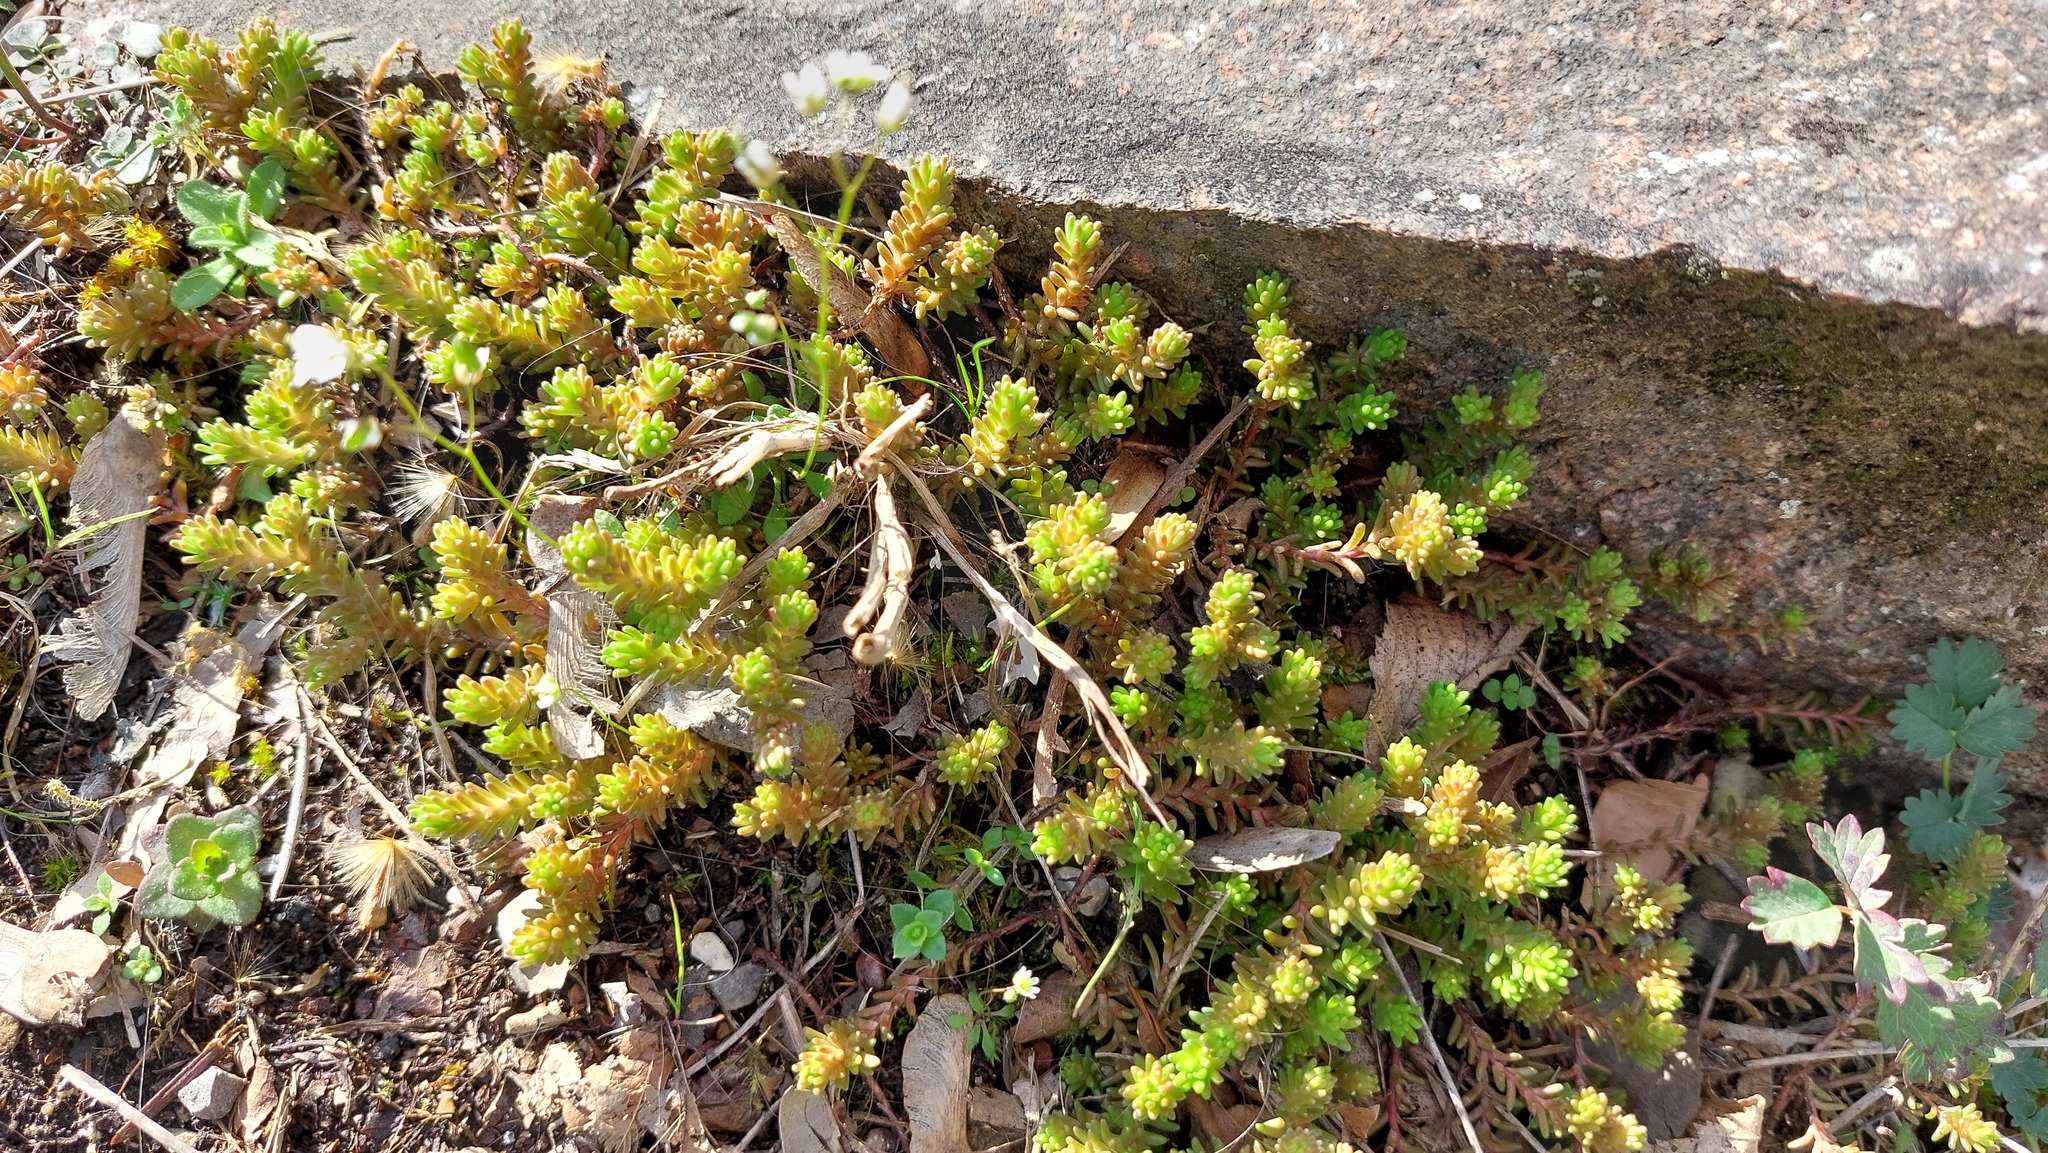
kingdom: Plantae
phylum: Tracheophyta
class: Magnoliopsida
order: Saxifragales
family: Crassulaceae
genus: Sedum
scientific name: Sedum sexangulare
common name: Tasteless stonecrop
